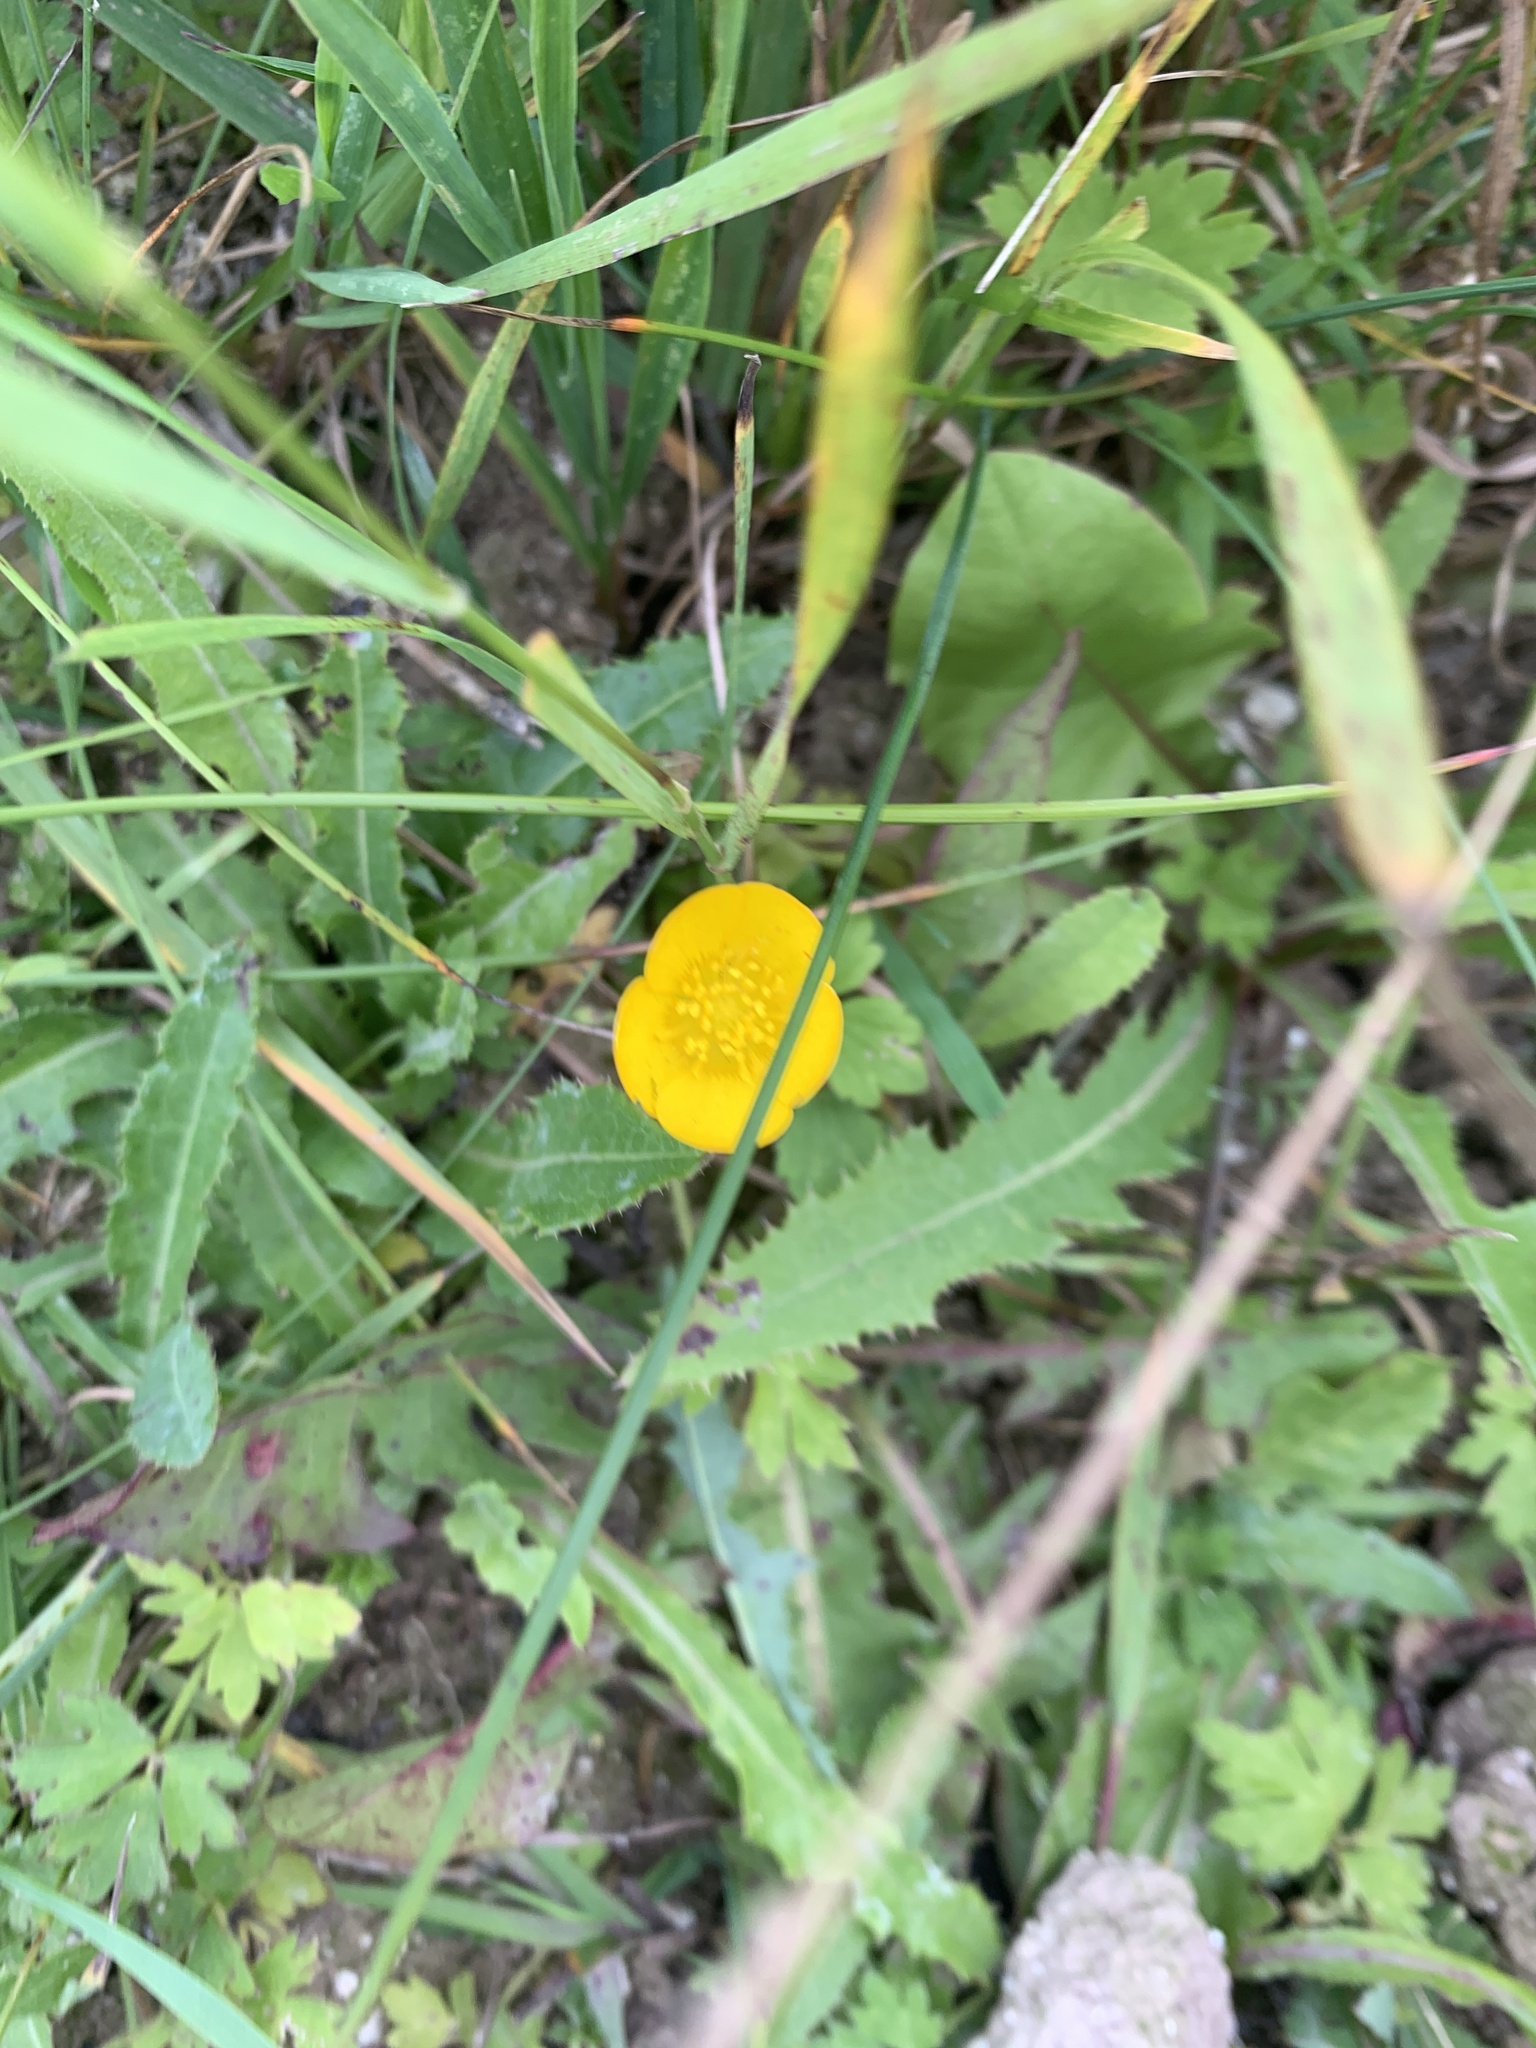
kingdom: Plantae
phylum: Tracheophyta
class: Magnoliopsida
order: Ranunculales
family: Ranunculaceae
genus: Ranunculus
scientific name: Ranunculus repens
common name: Creeping buttercup
